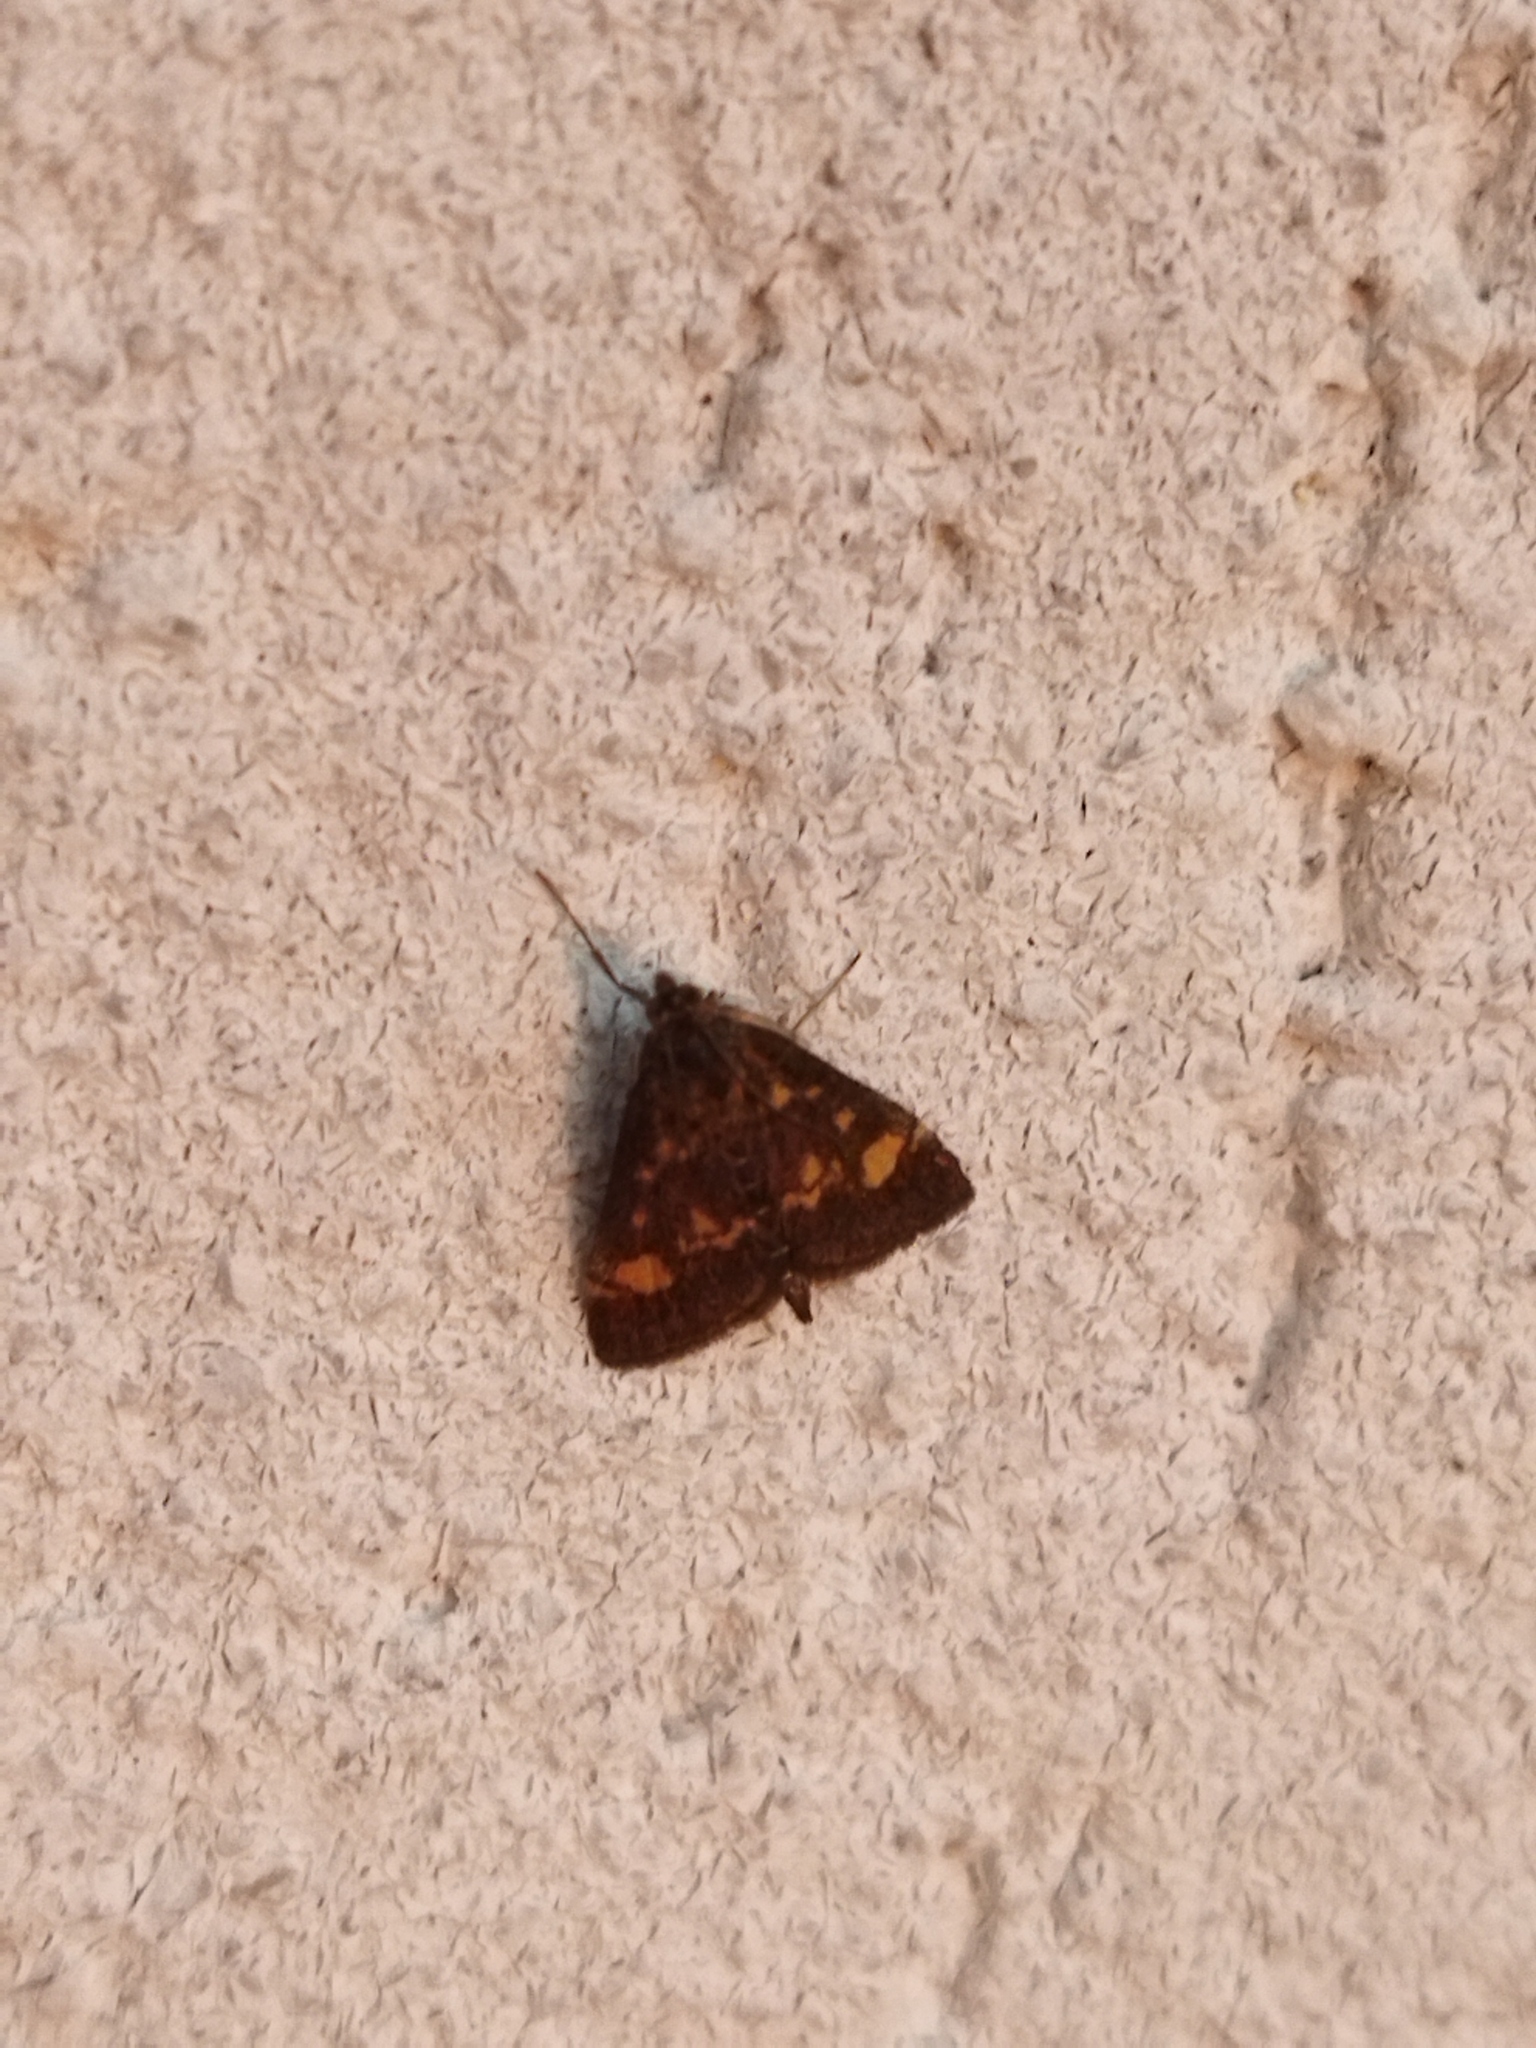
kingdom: Animalia
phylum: Arthropoda
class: Insecta
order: Lepidoptera
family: Crambidae
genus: Pyrausta
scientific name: Pyrausta aurata
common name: Small purple & gold
